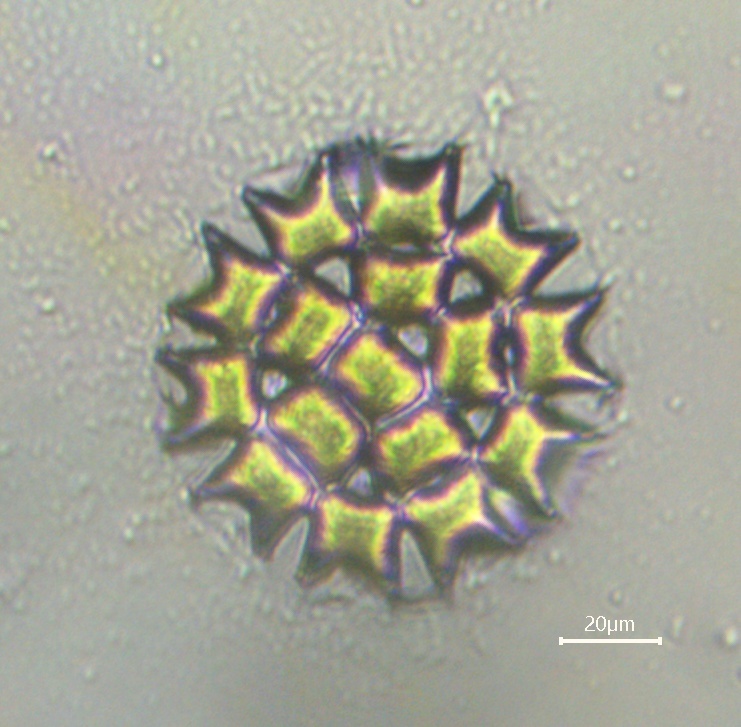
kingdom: Plantae
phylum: Chlorophyta
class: Chlorophyceae
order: Sphaeropleales
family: Hydrodictyaceae
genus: Pediastrum
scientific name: Pediastrum duplex
